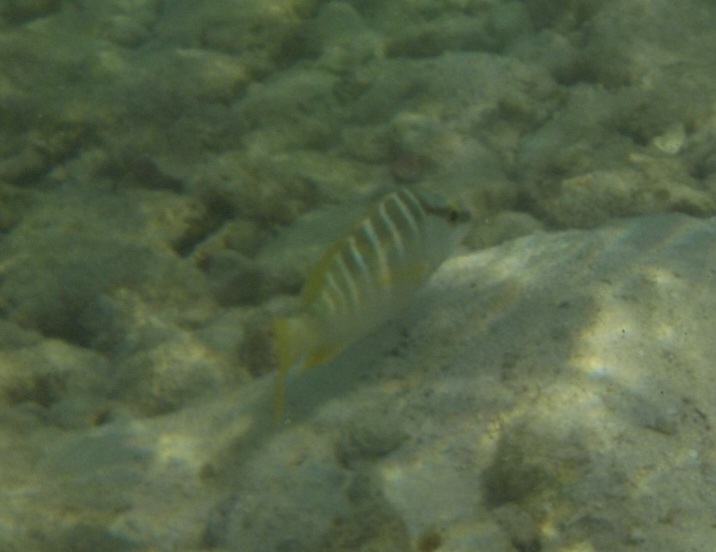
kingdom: Animalia
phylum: Chordata
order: Perciformes
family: Lutjanidae
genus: Lutjanus
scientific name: Lutjanus apodus
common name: Schoolmaster
